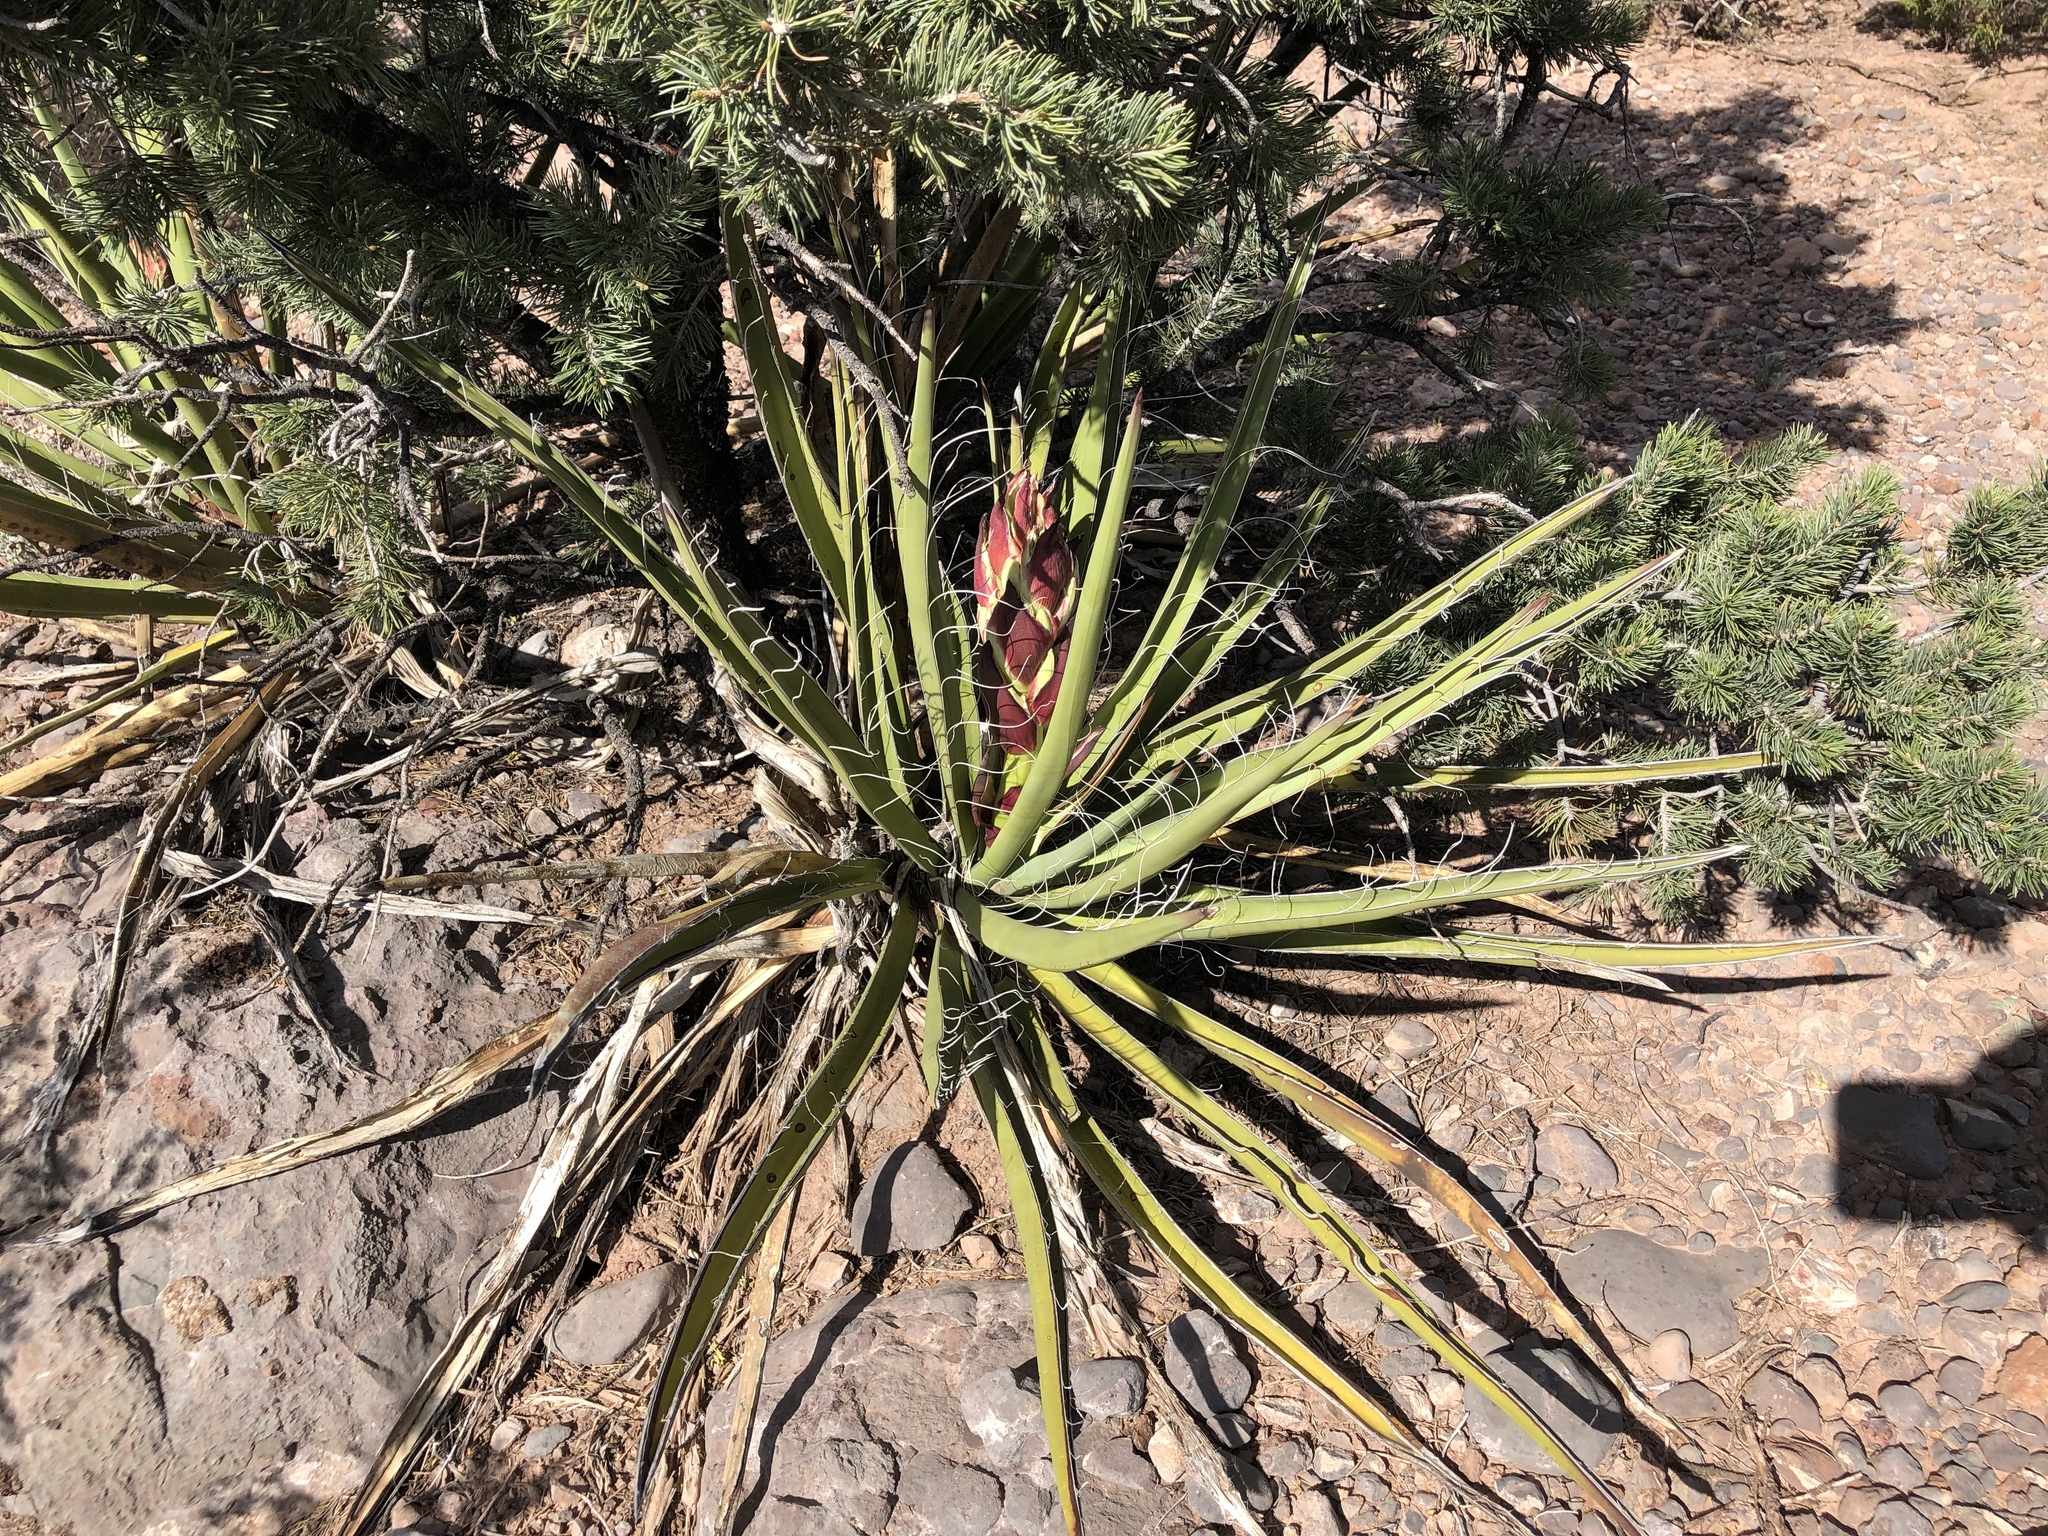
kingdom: Plantae
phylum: Tracheophyta
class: Liliopsida
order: Asparagales
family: Asparagaceae
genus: Yucca
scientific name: Yucca baccata
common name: Banana yucca
